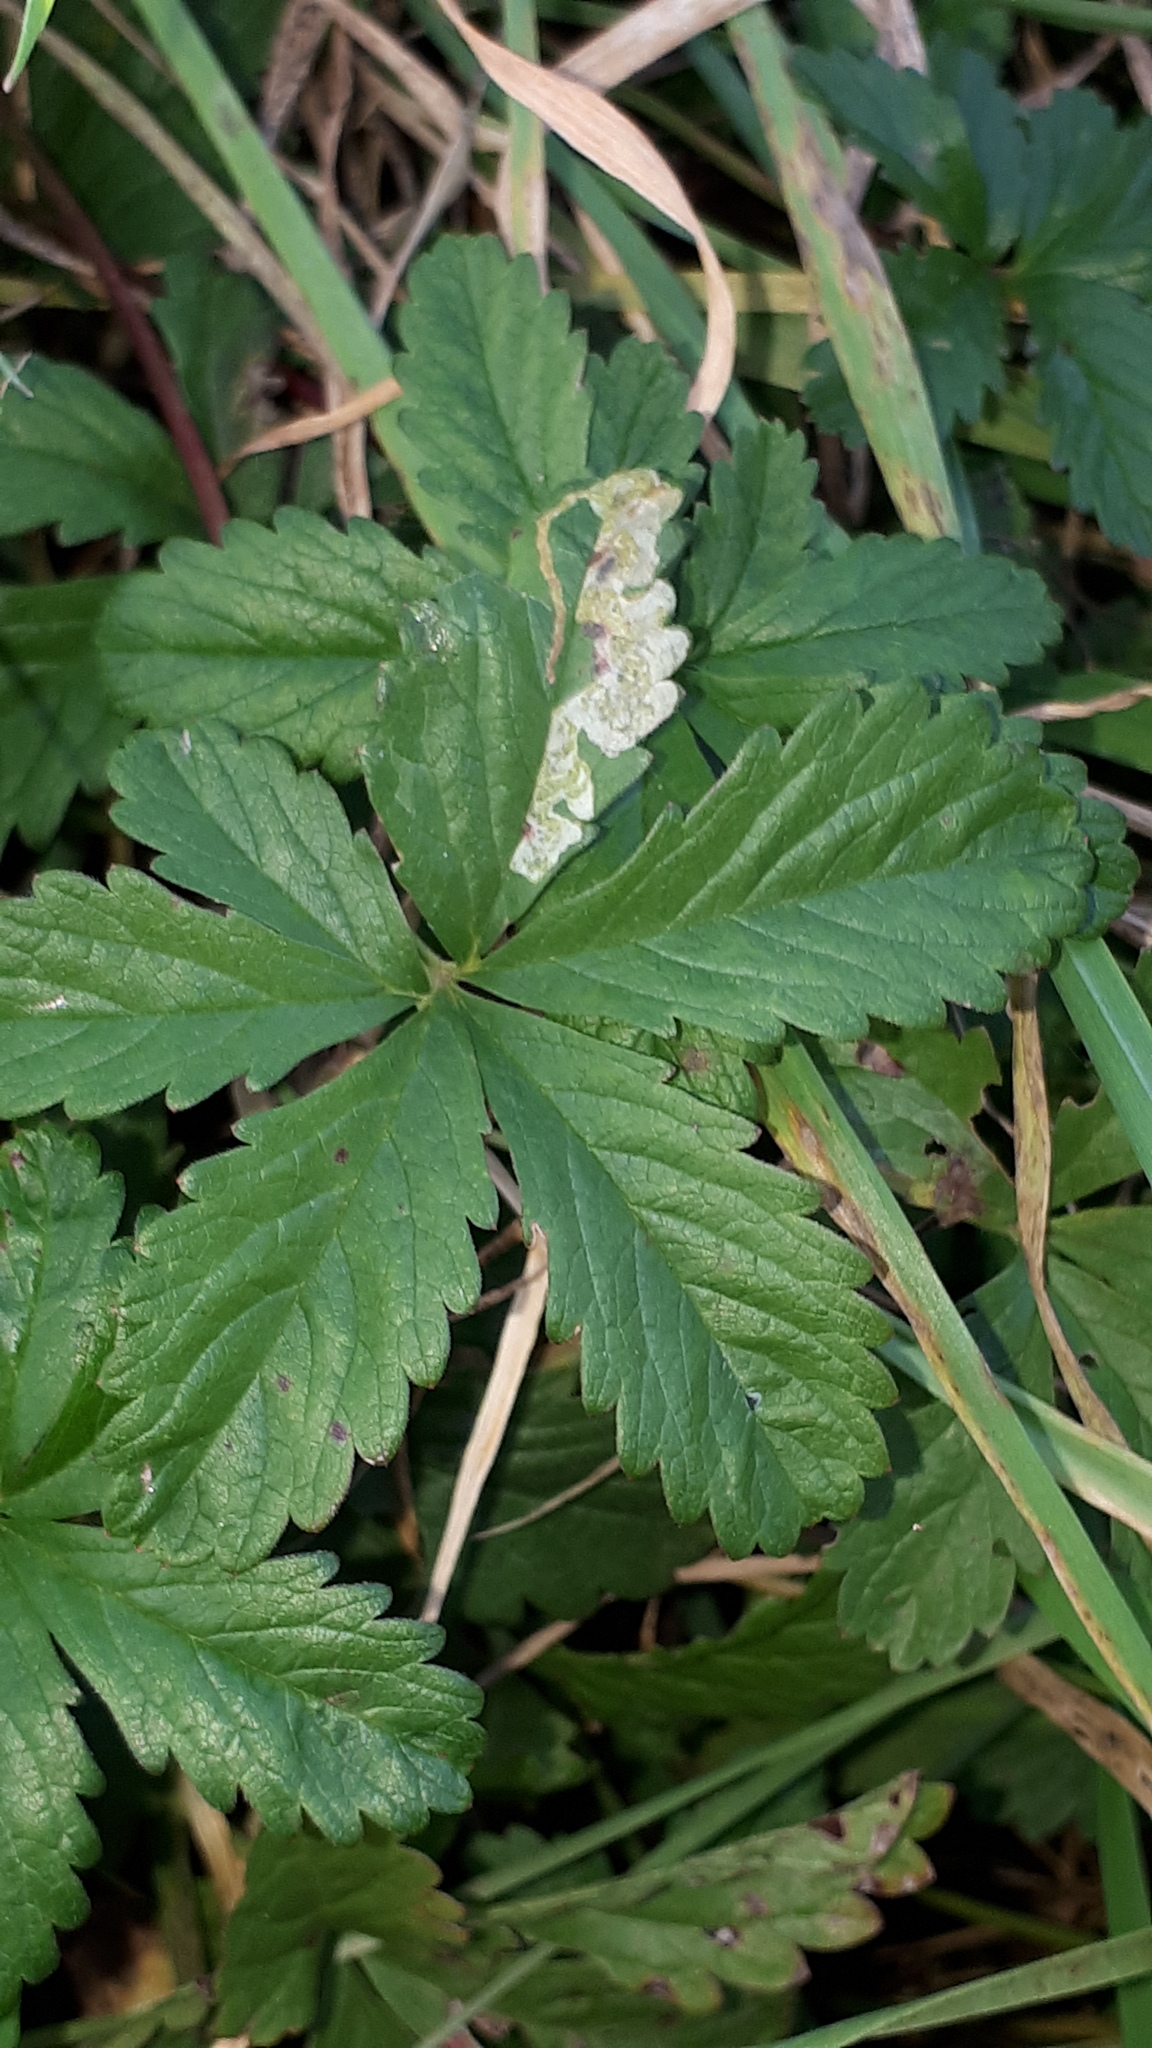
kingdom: Plantae
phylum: Tracheophyta
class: Magnoliopsida
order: Rosales
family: Rosaceae
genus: Potentilla
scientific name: Potentilla reptans
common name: Creeping cinquefoil
